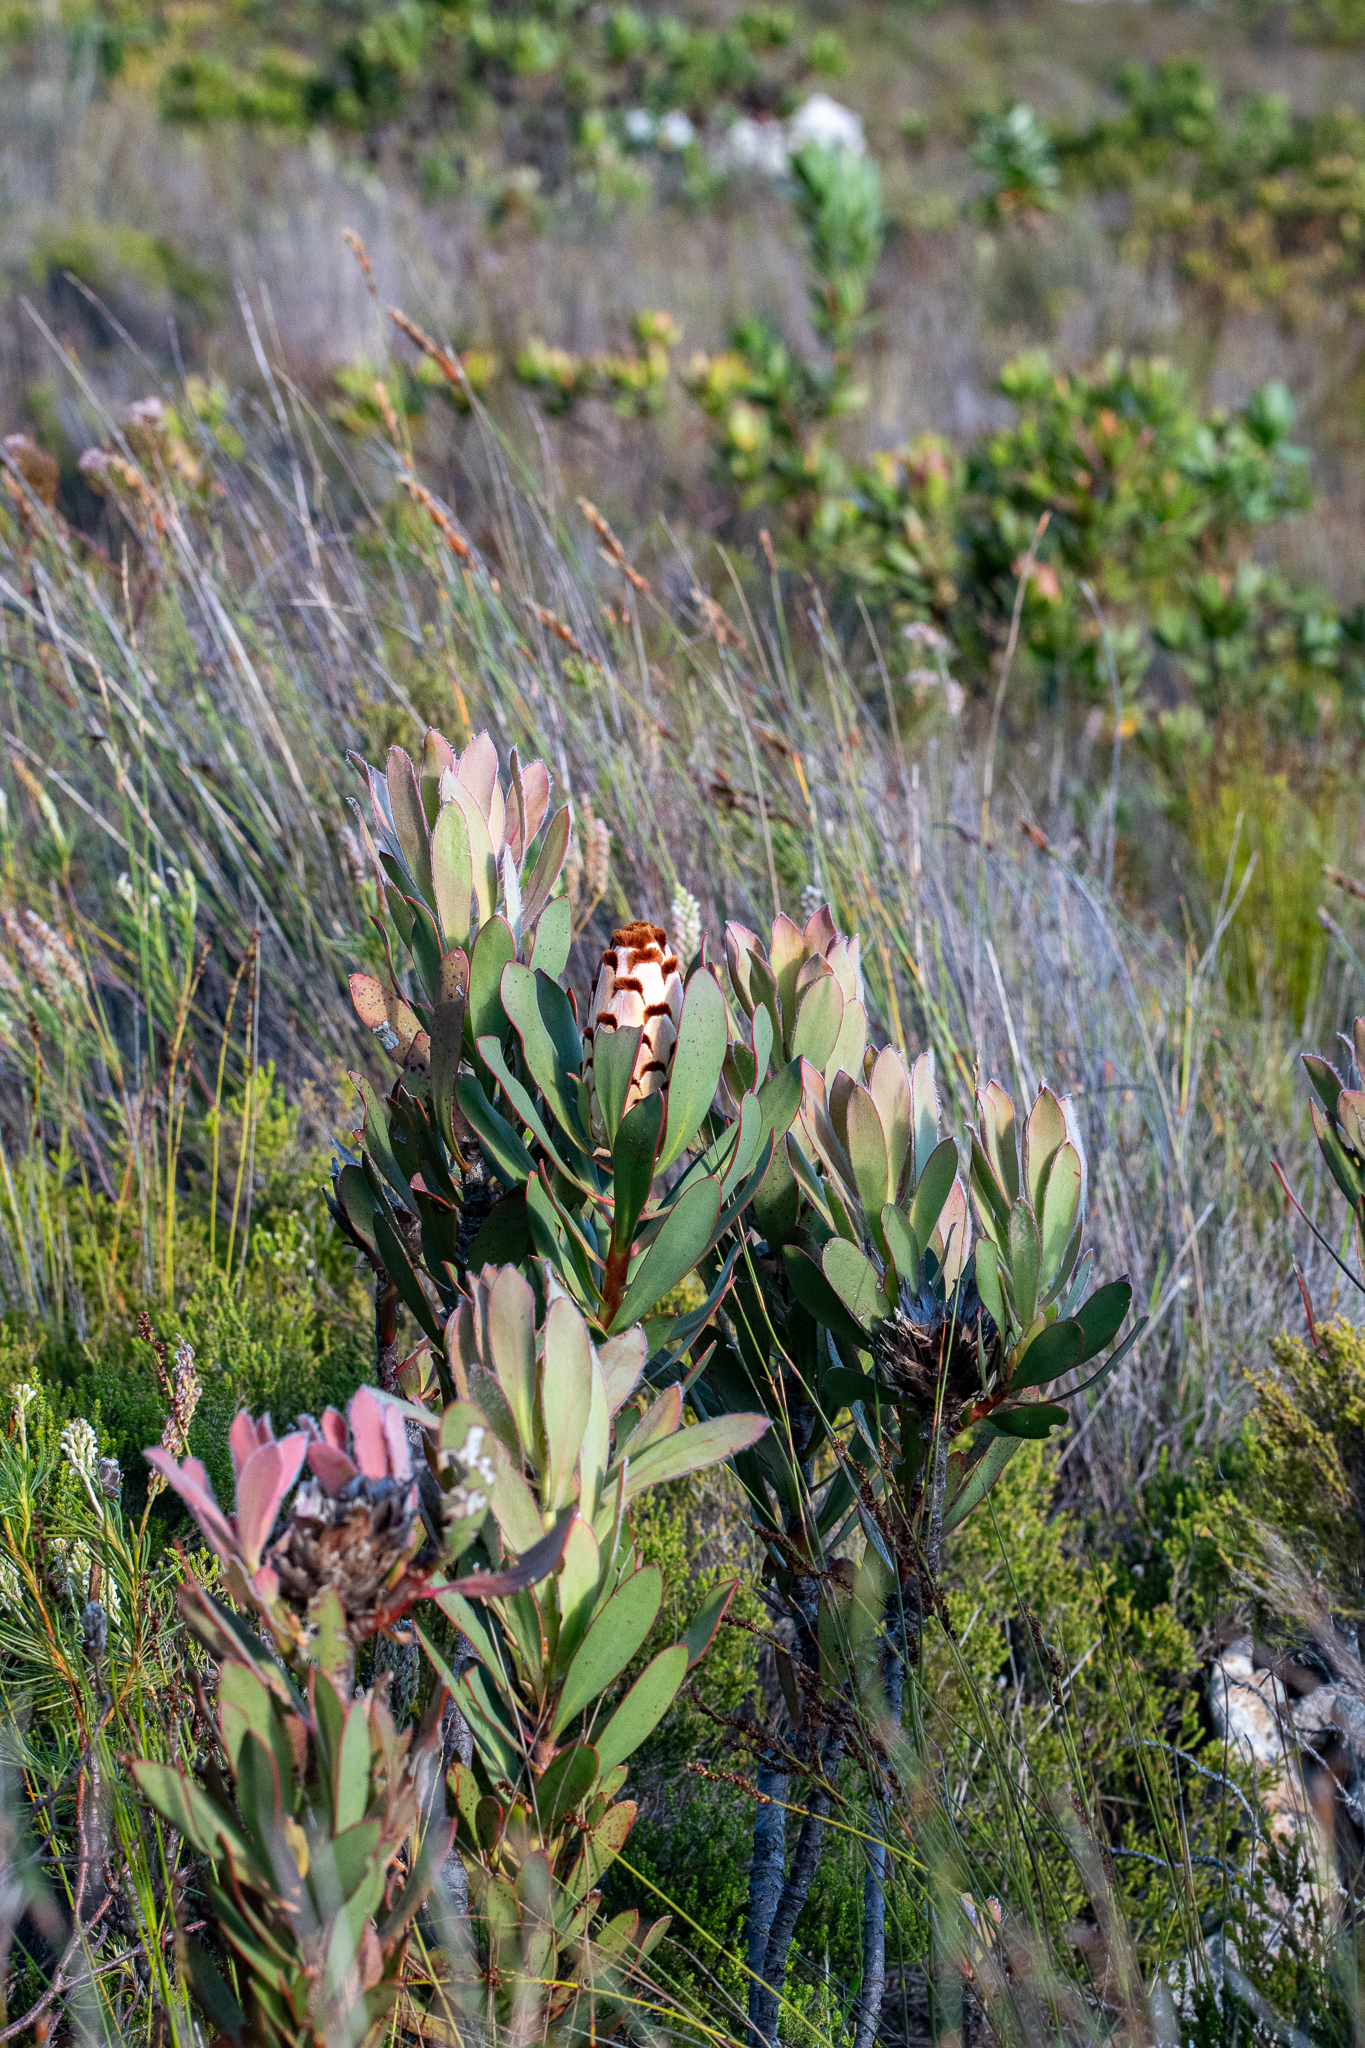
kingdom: Plantae
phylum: Tracheophyta
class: Magnoliopsida
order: Proteales
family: Proteaceae
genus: Protea
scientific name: Protea speciosa
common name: Brown-beard sugarbush
